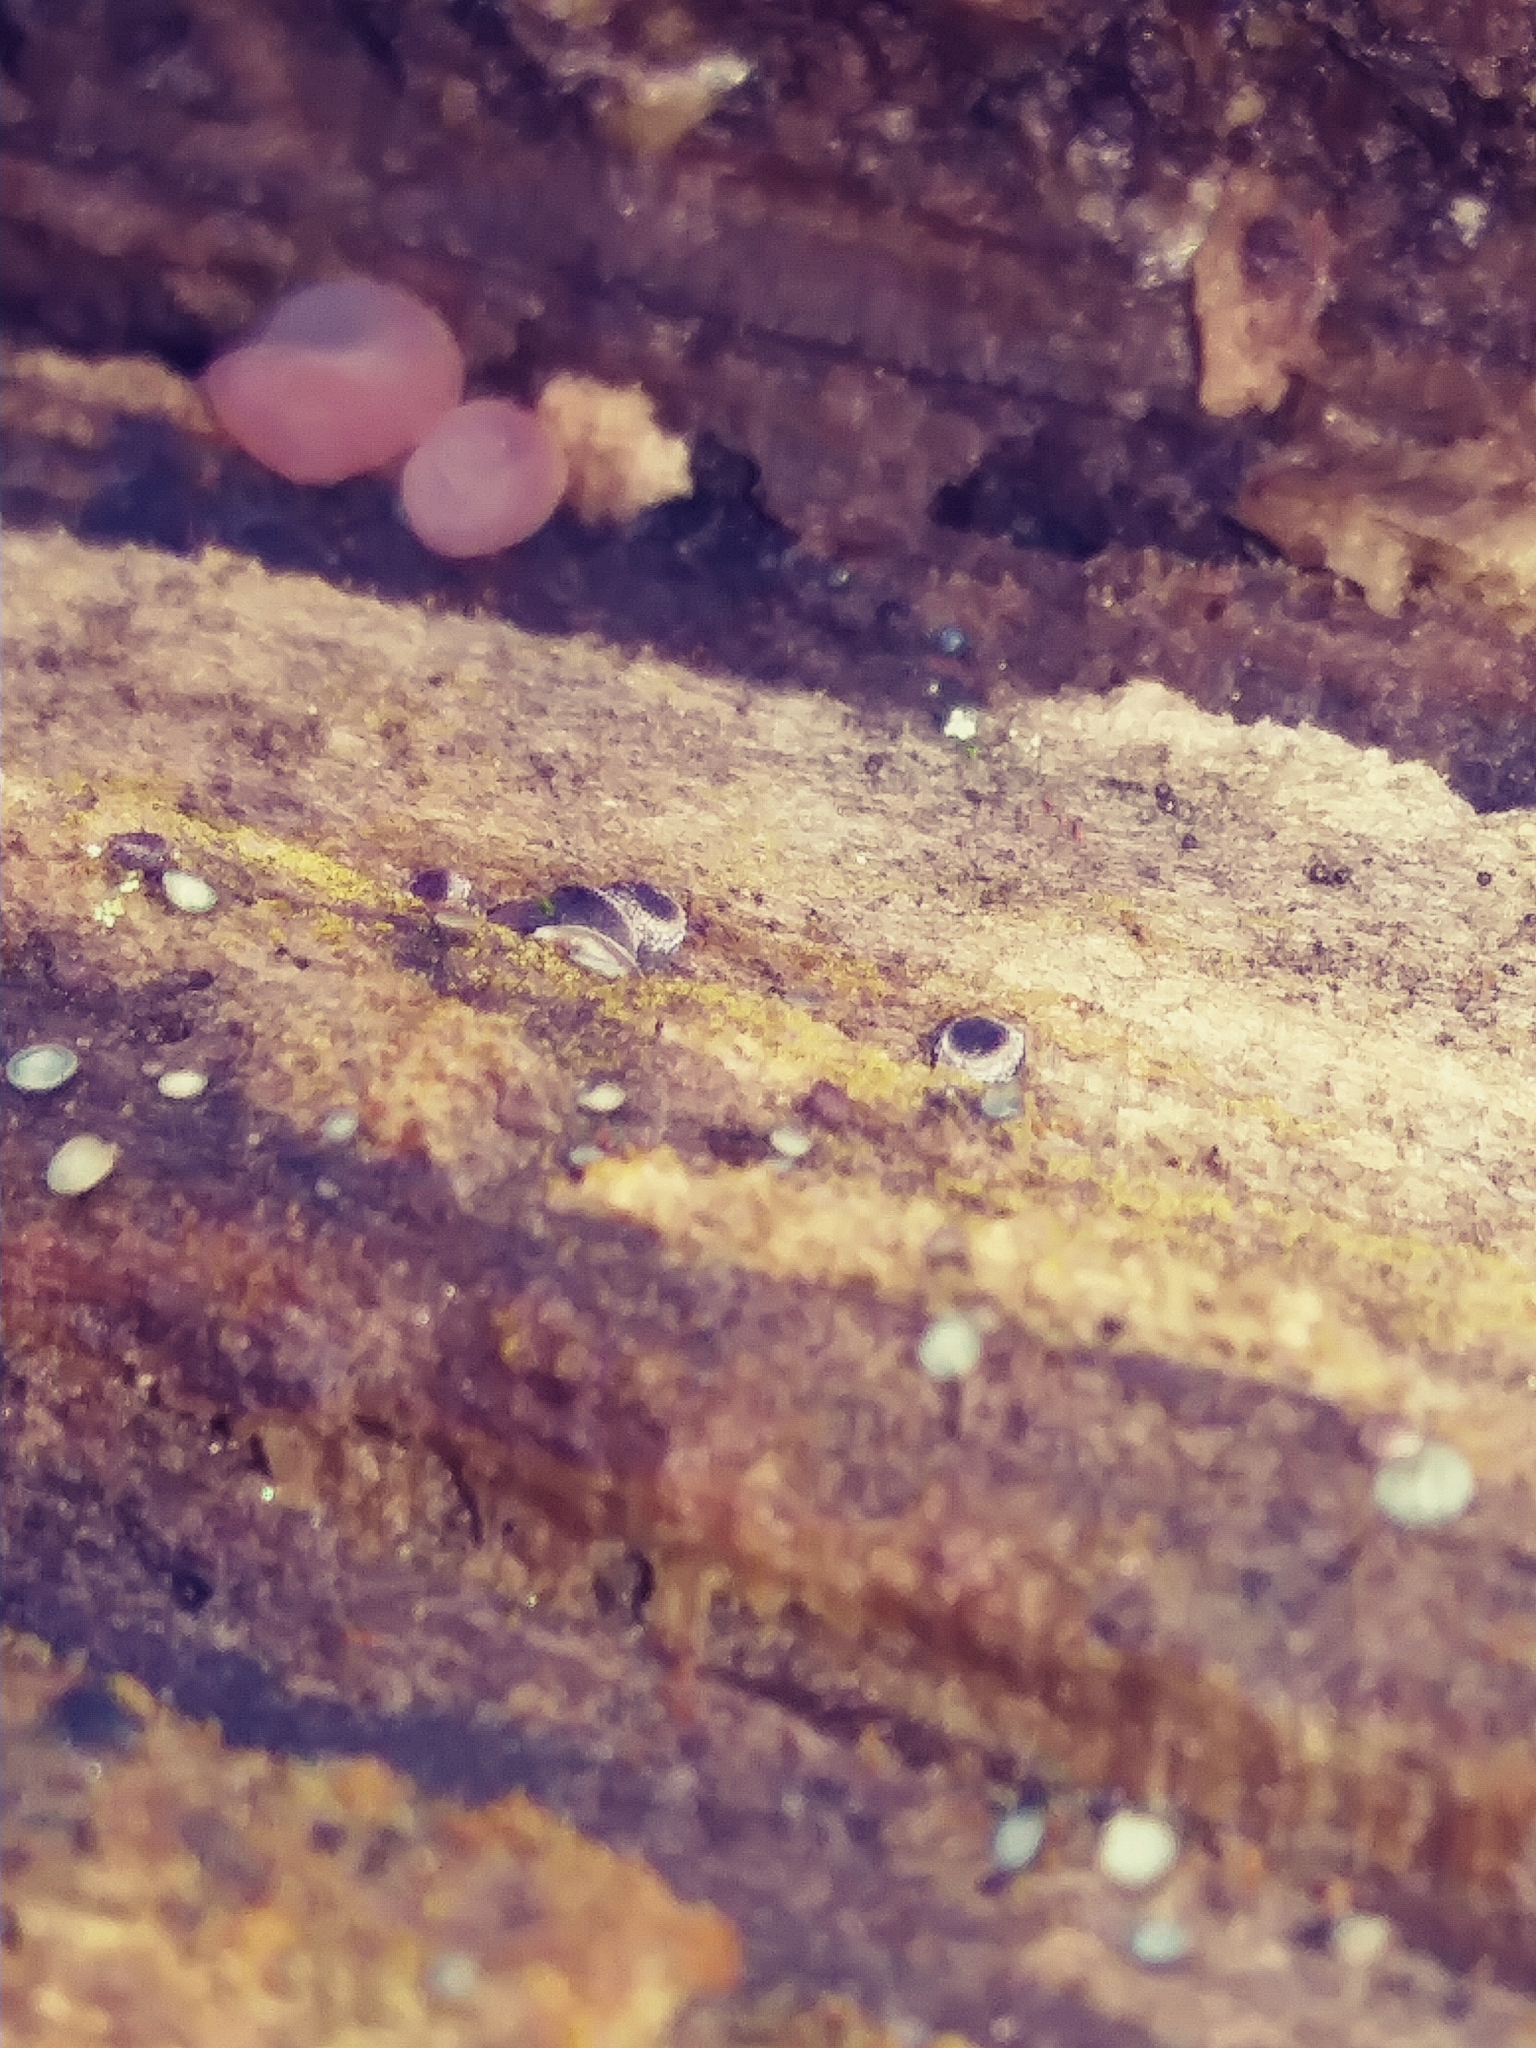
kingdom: Fungi
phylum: Basidiomycota
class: Atractiellomycetes
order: Atractiellales
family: Phleogenaceae
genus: Helicogloea
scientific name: Helicogloea compressa
